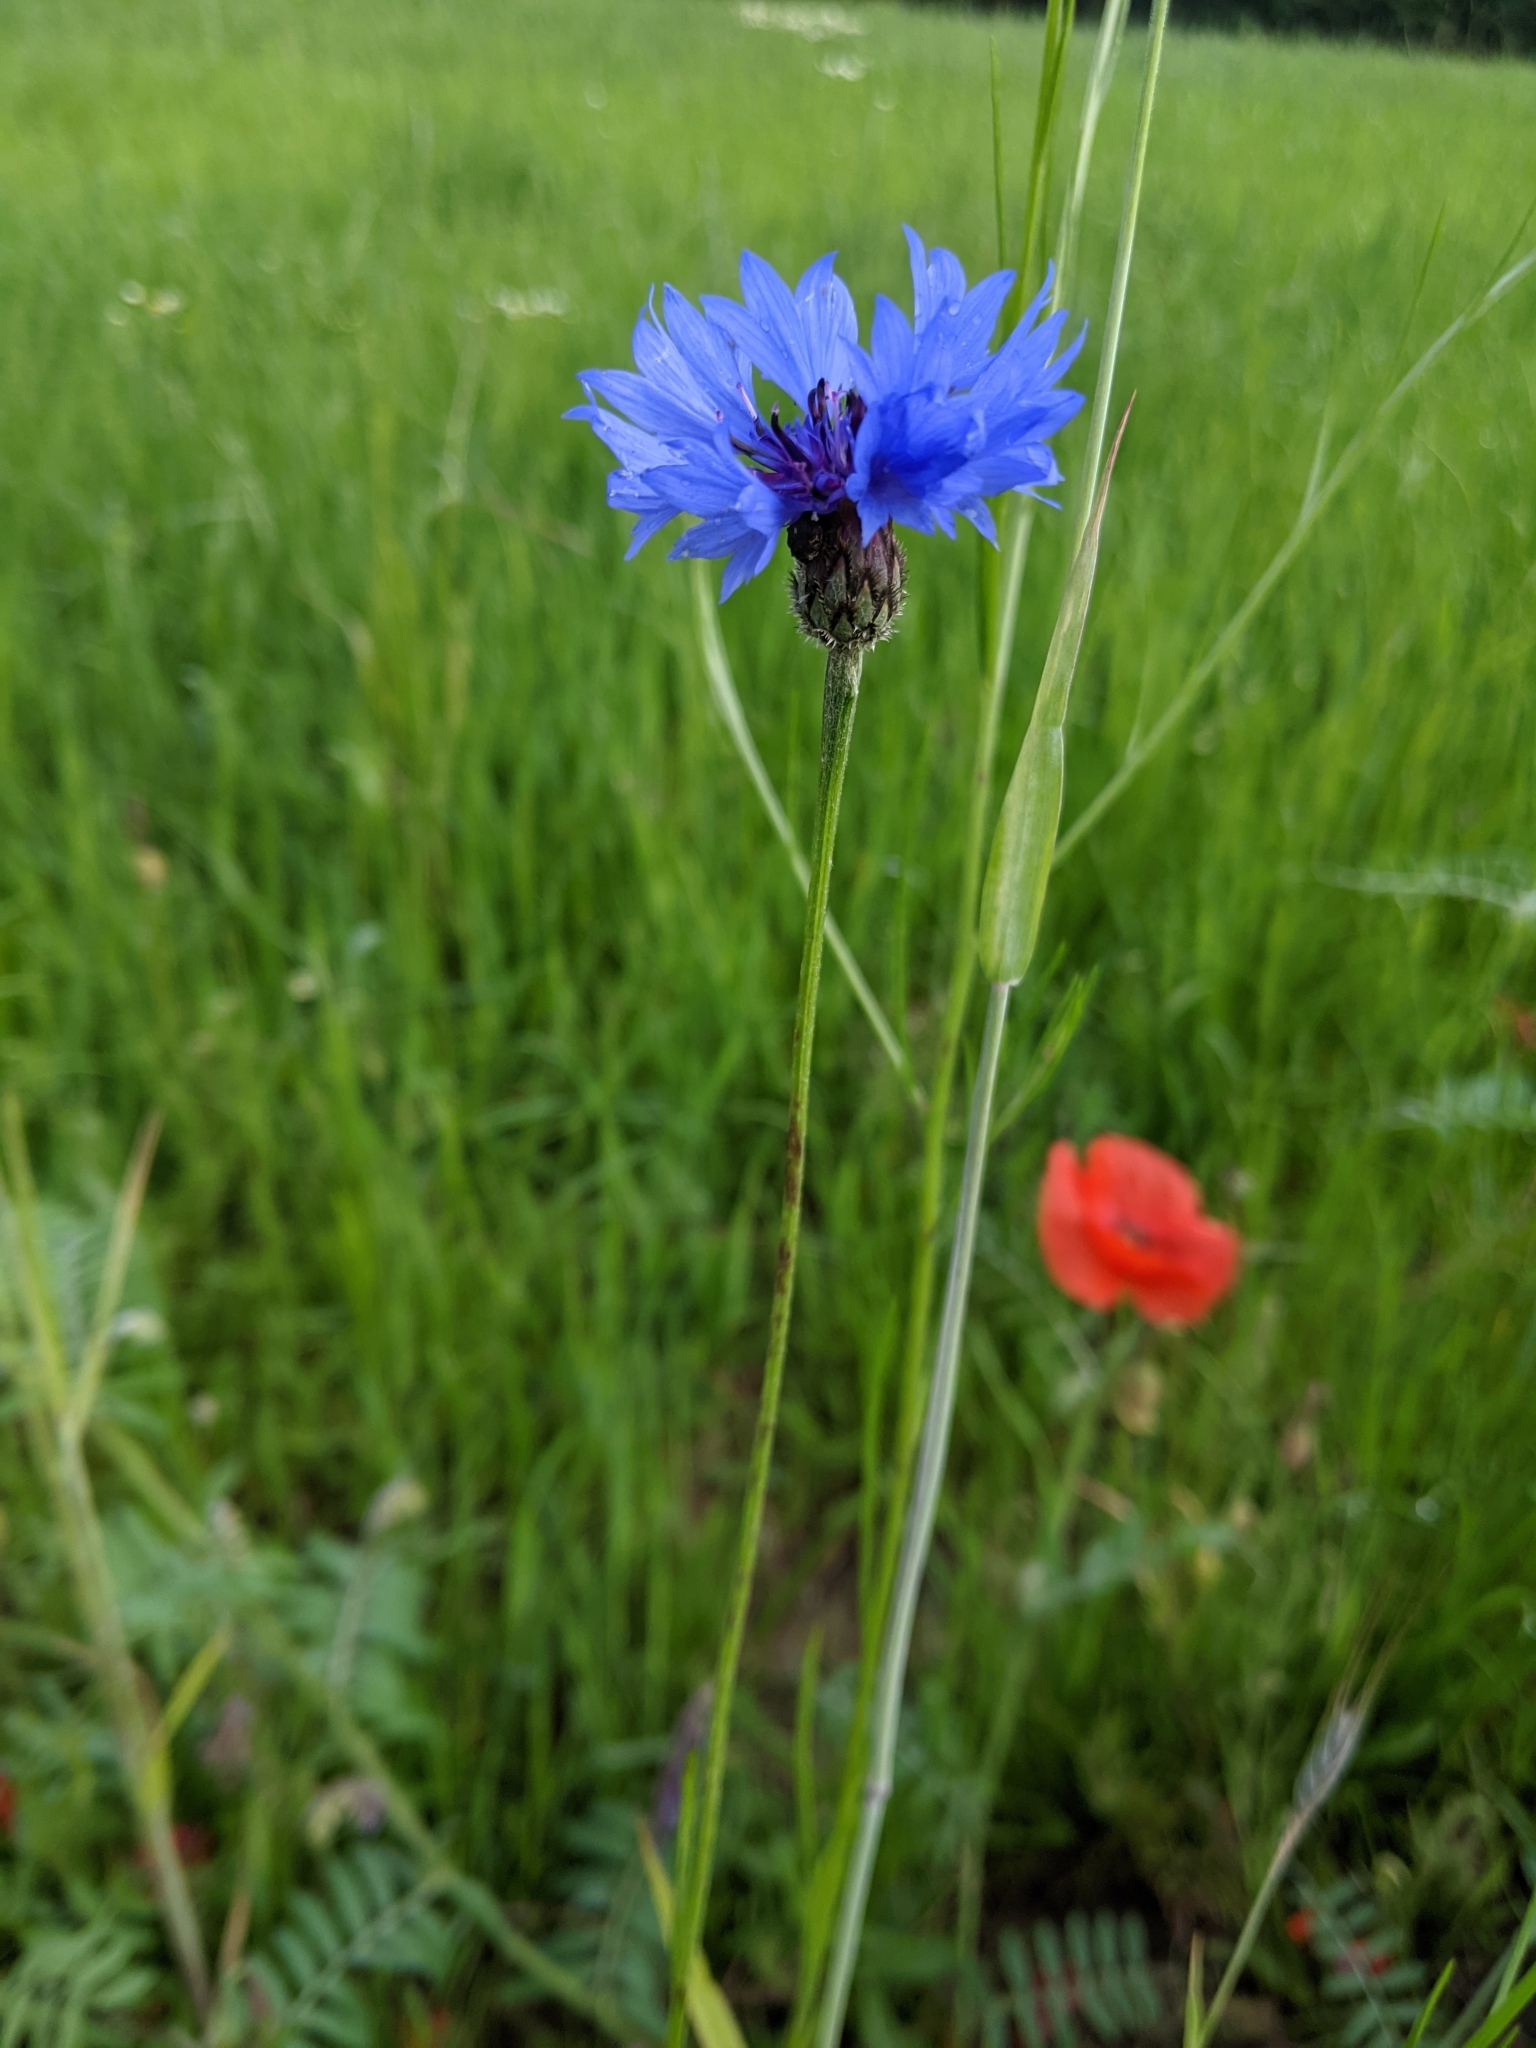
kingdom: Plantae
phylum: Tracheophyta
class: Magnoliopsida
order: Asterales
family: Asteraceae
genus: Centaurea
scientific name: Centaurea cyanus
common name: Cornflower
